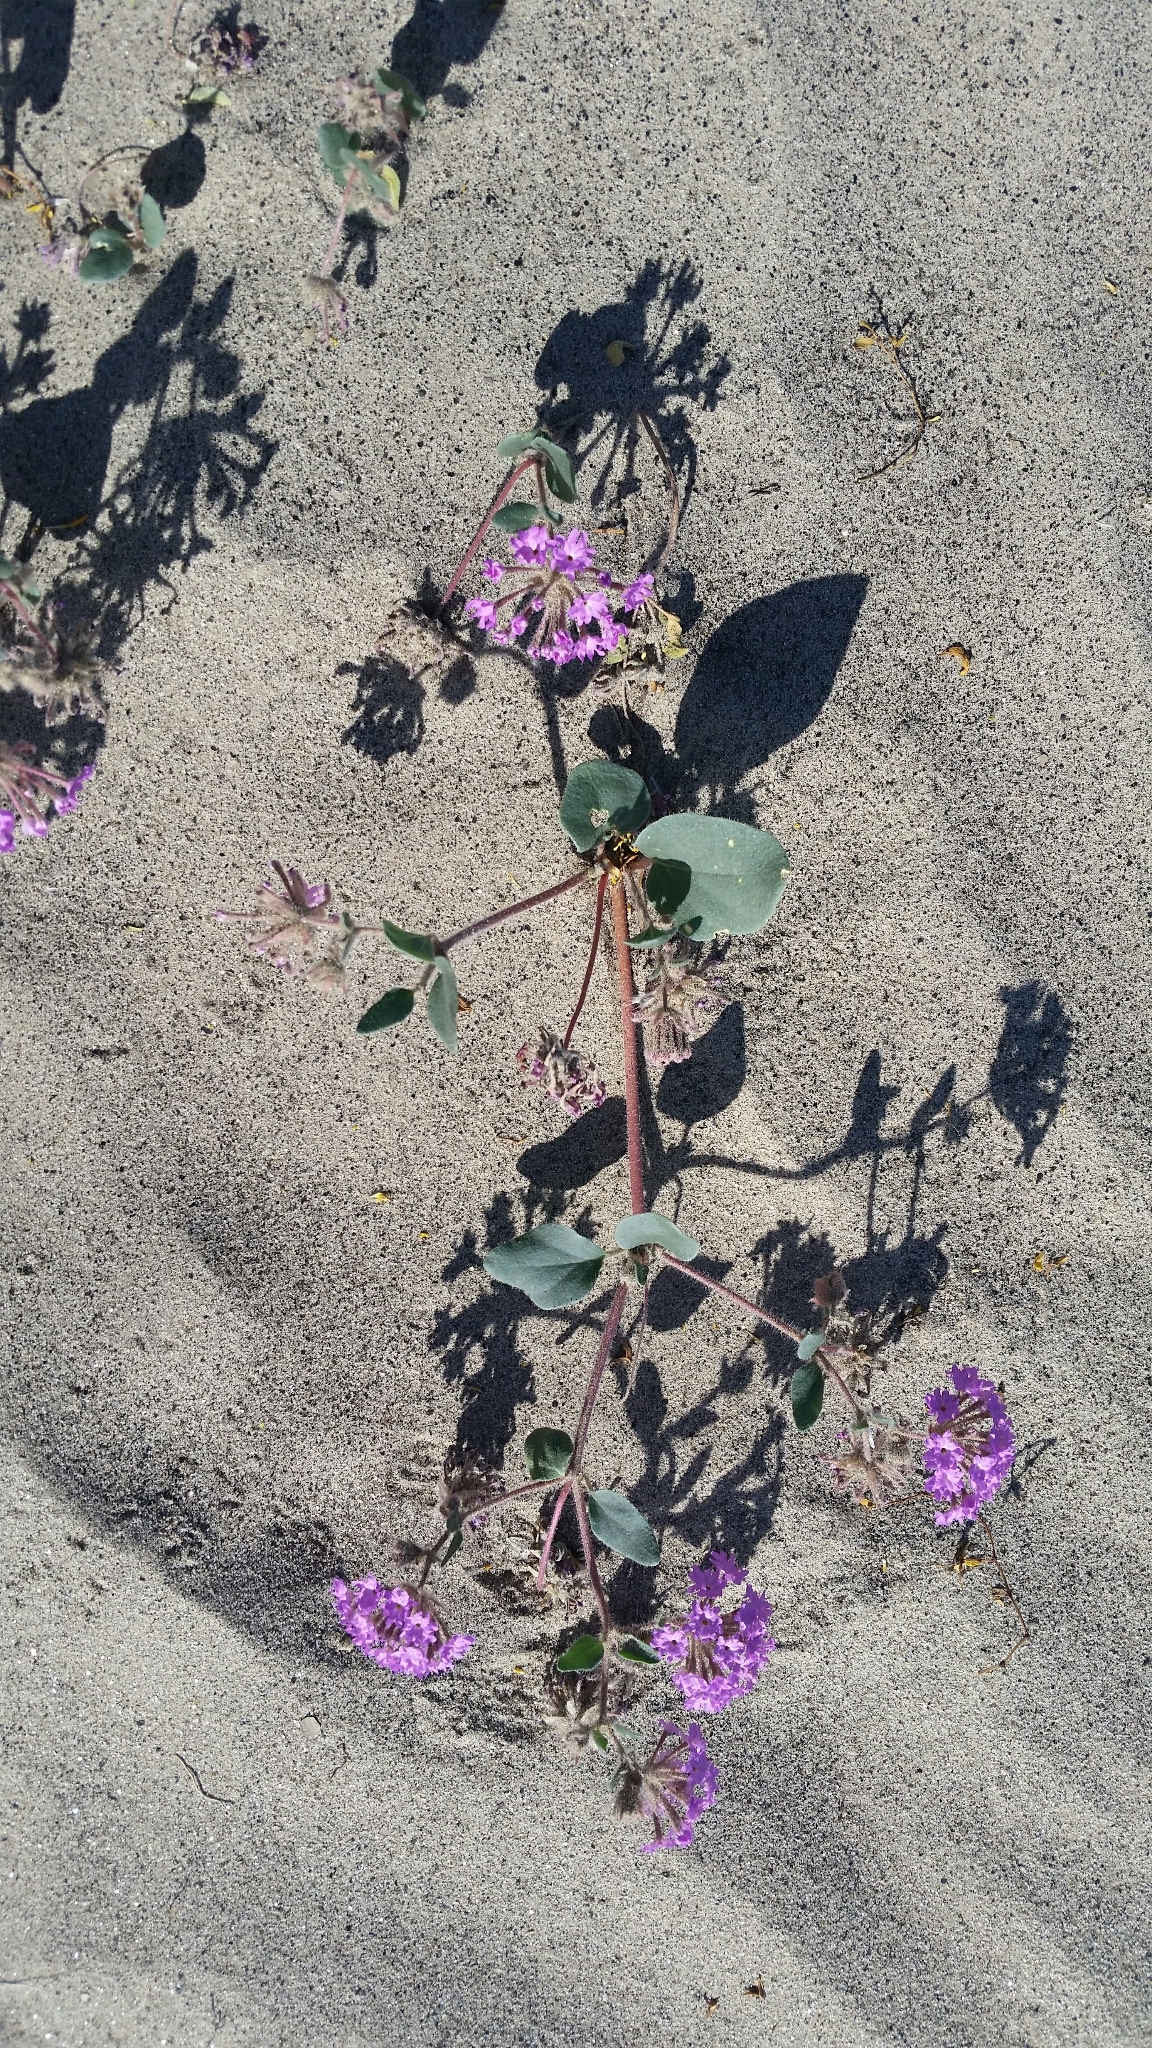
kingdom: Plantae
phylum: Tracheophyta
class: Magnoliopsida
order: Caryophyllales
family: Nyctaginaceae
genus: Abronia
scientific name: Abronia villosa
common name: Desert sand-verbena
